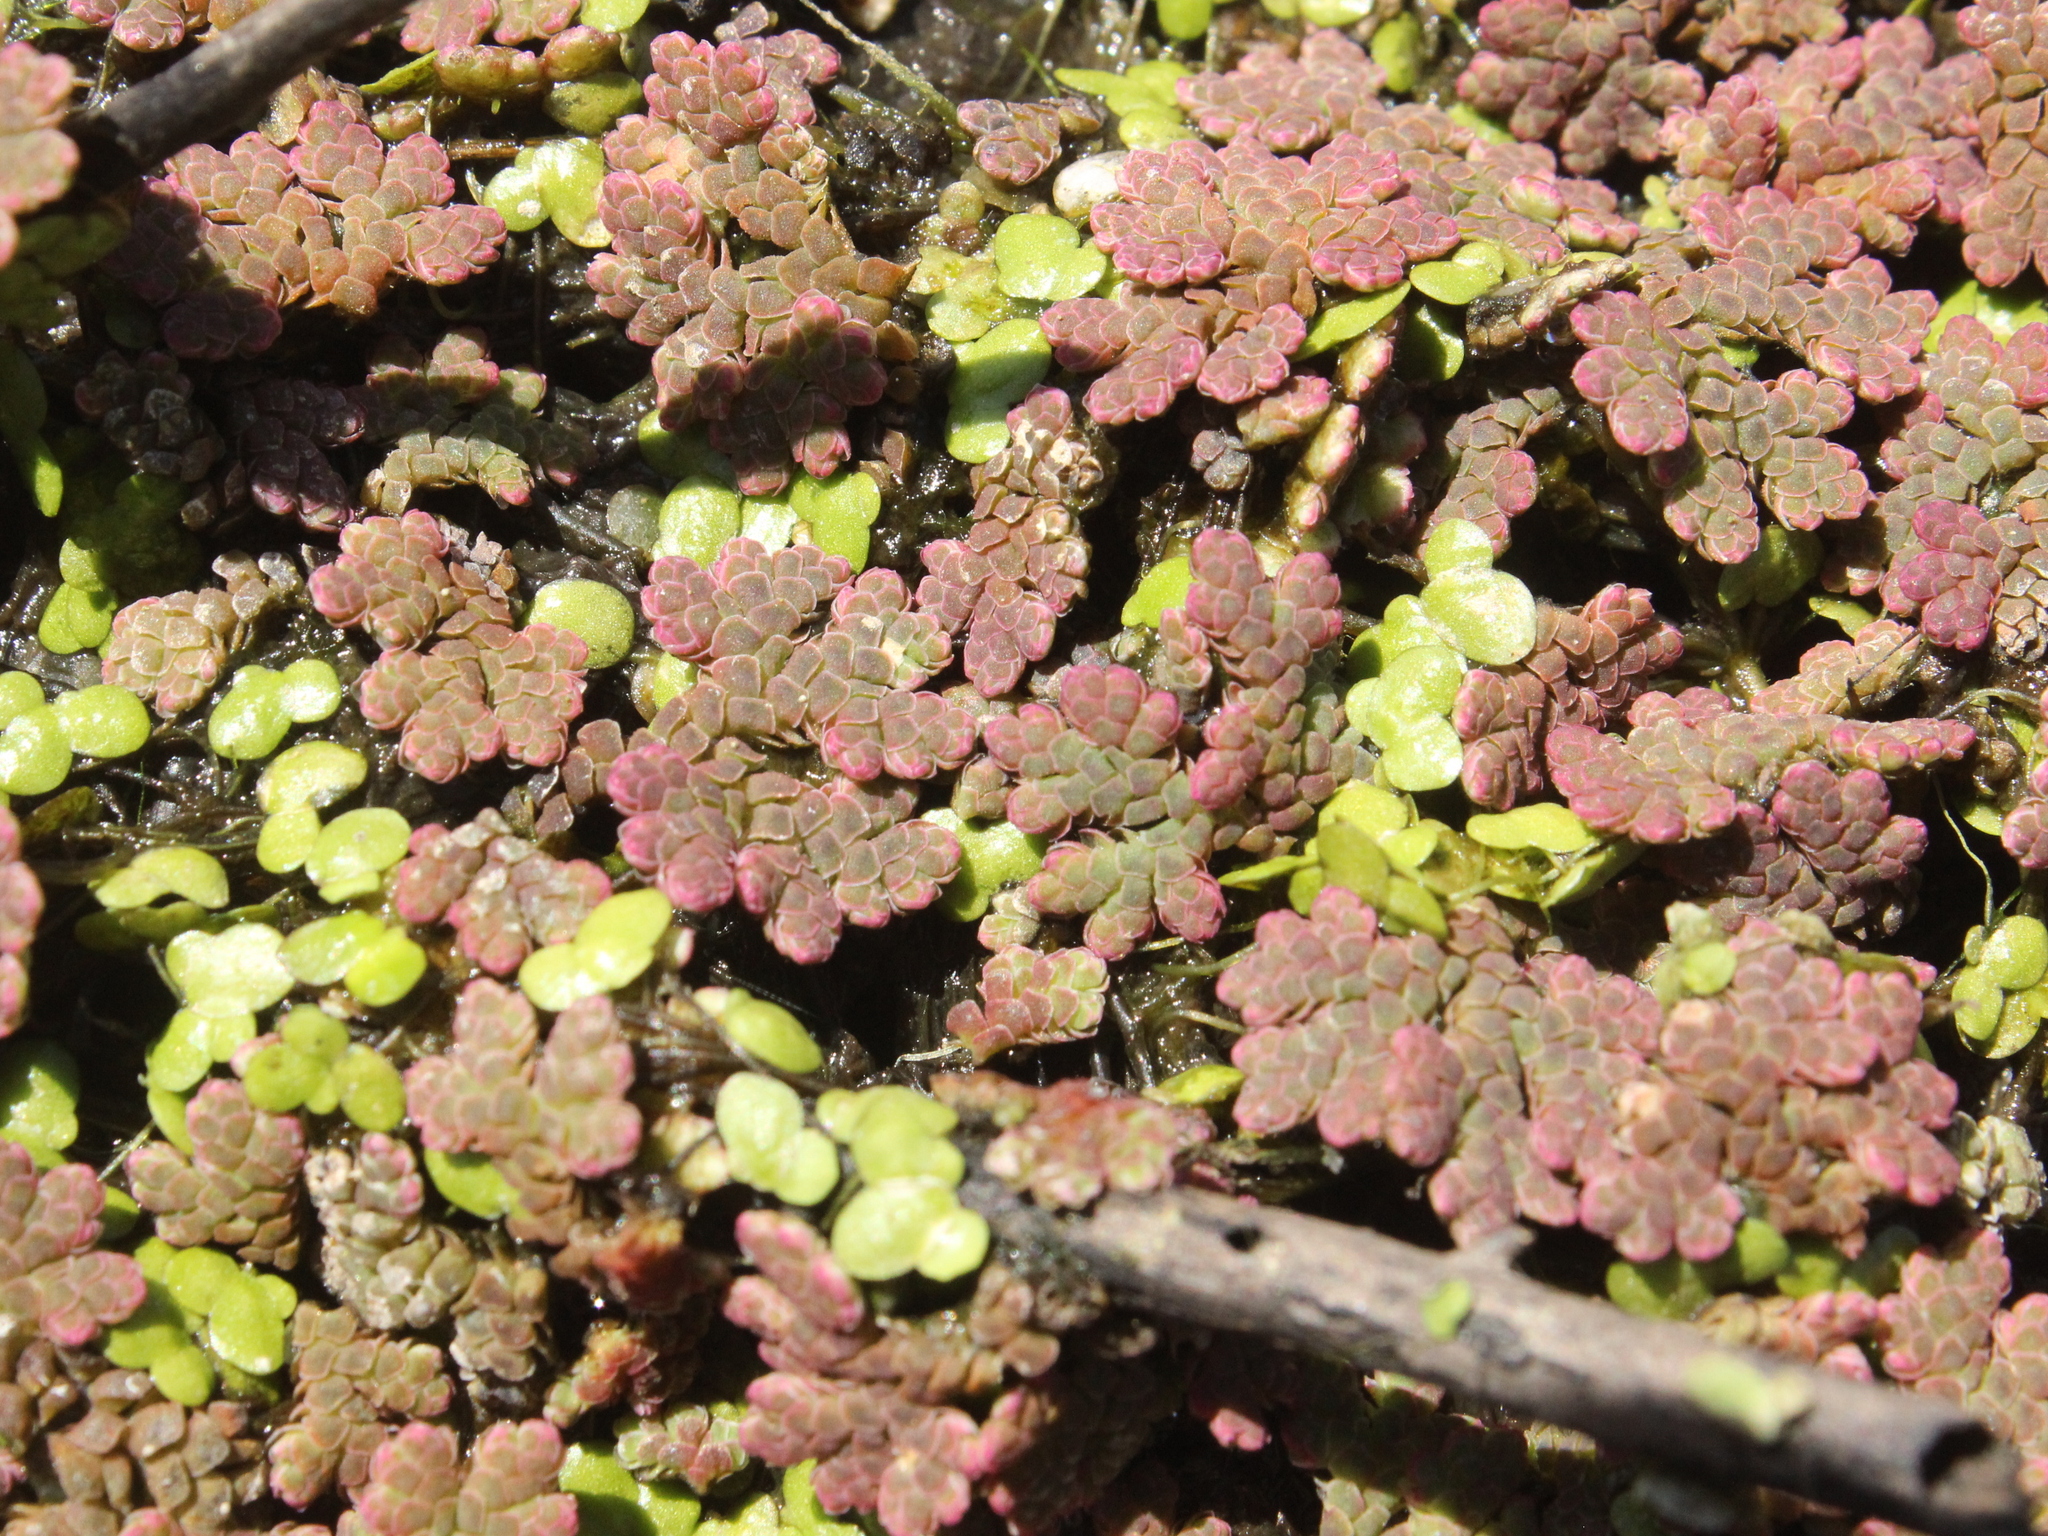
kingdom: Plantae
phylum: Tracheophyta
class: Polypodiopsida
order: Salviniales
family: Salviniaceae
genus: Azolla
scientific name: Azolla rubra
